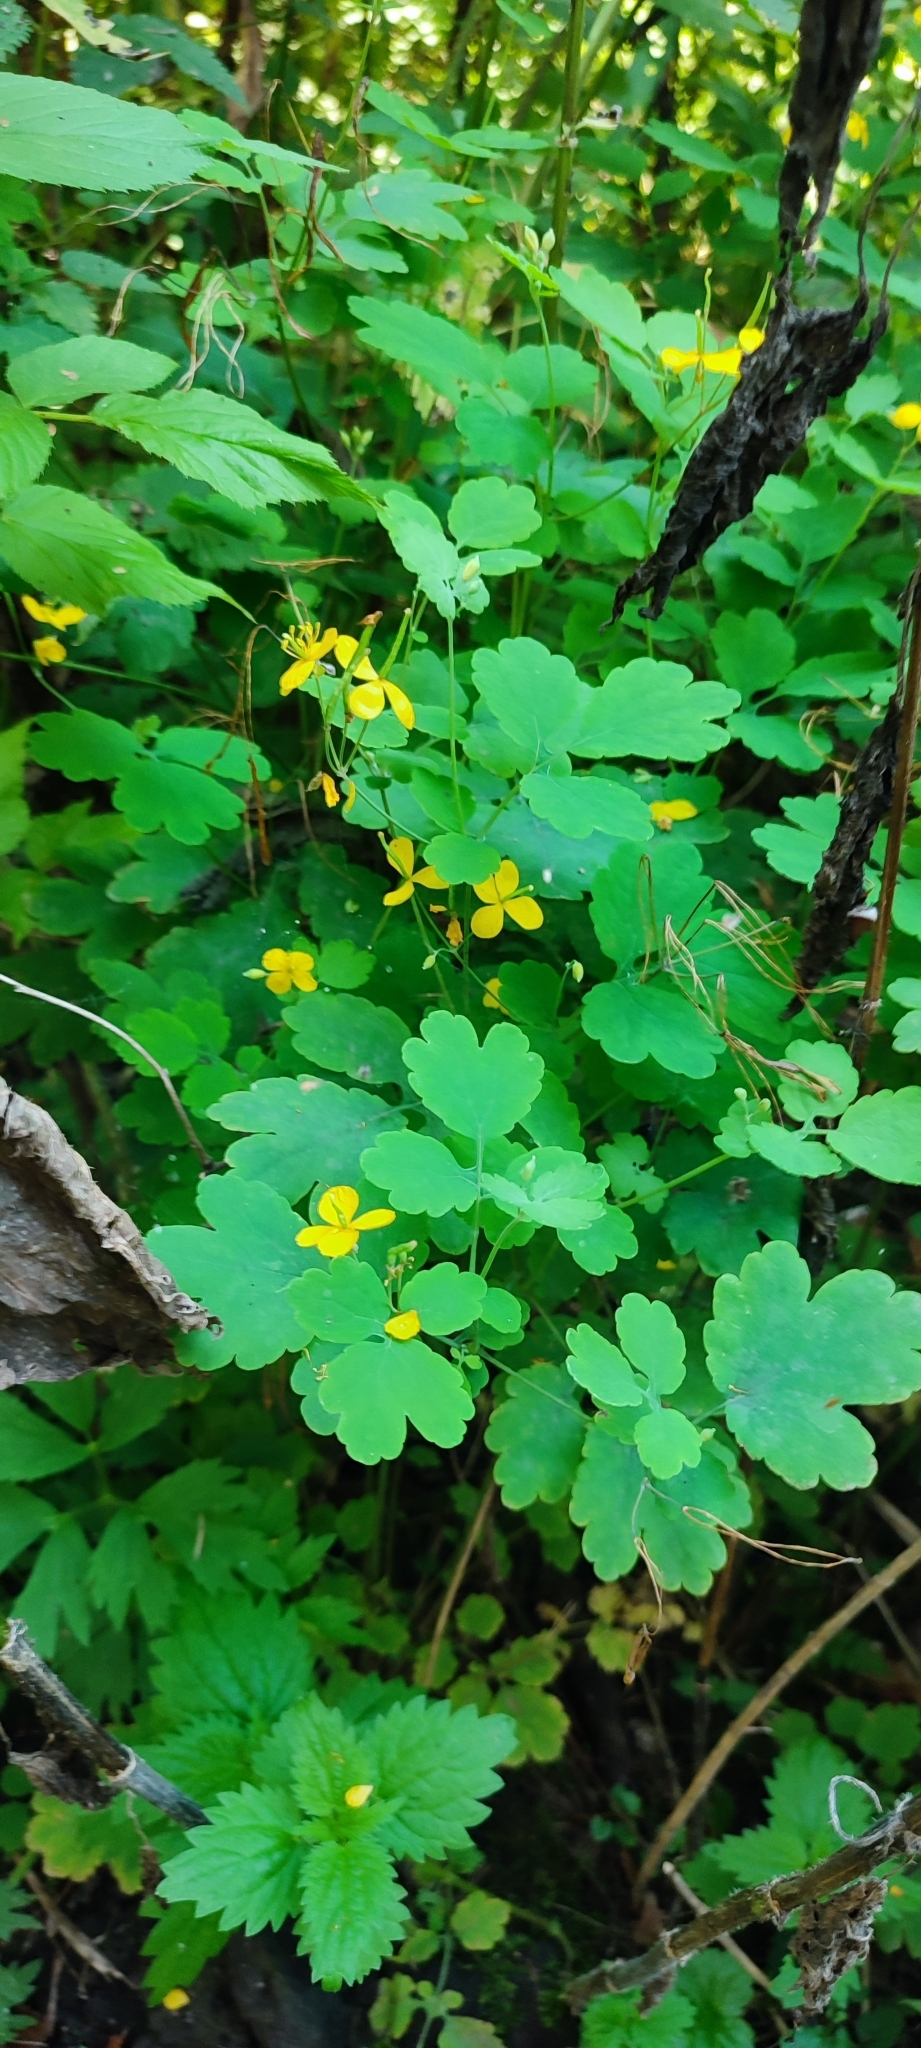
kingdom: Plantae
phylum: Tracheophyta
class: Magnoliopsida
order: Ranunculales
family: Papaveraceae
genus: Chelidonium
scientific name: Chelidonium majus
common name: Greater celandine
